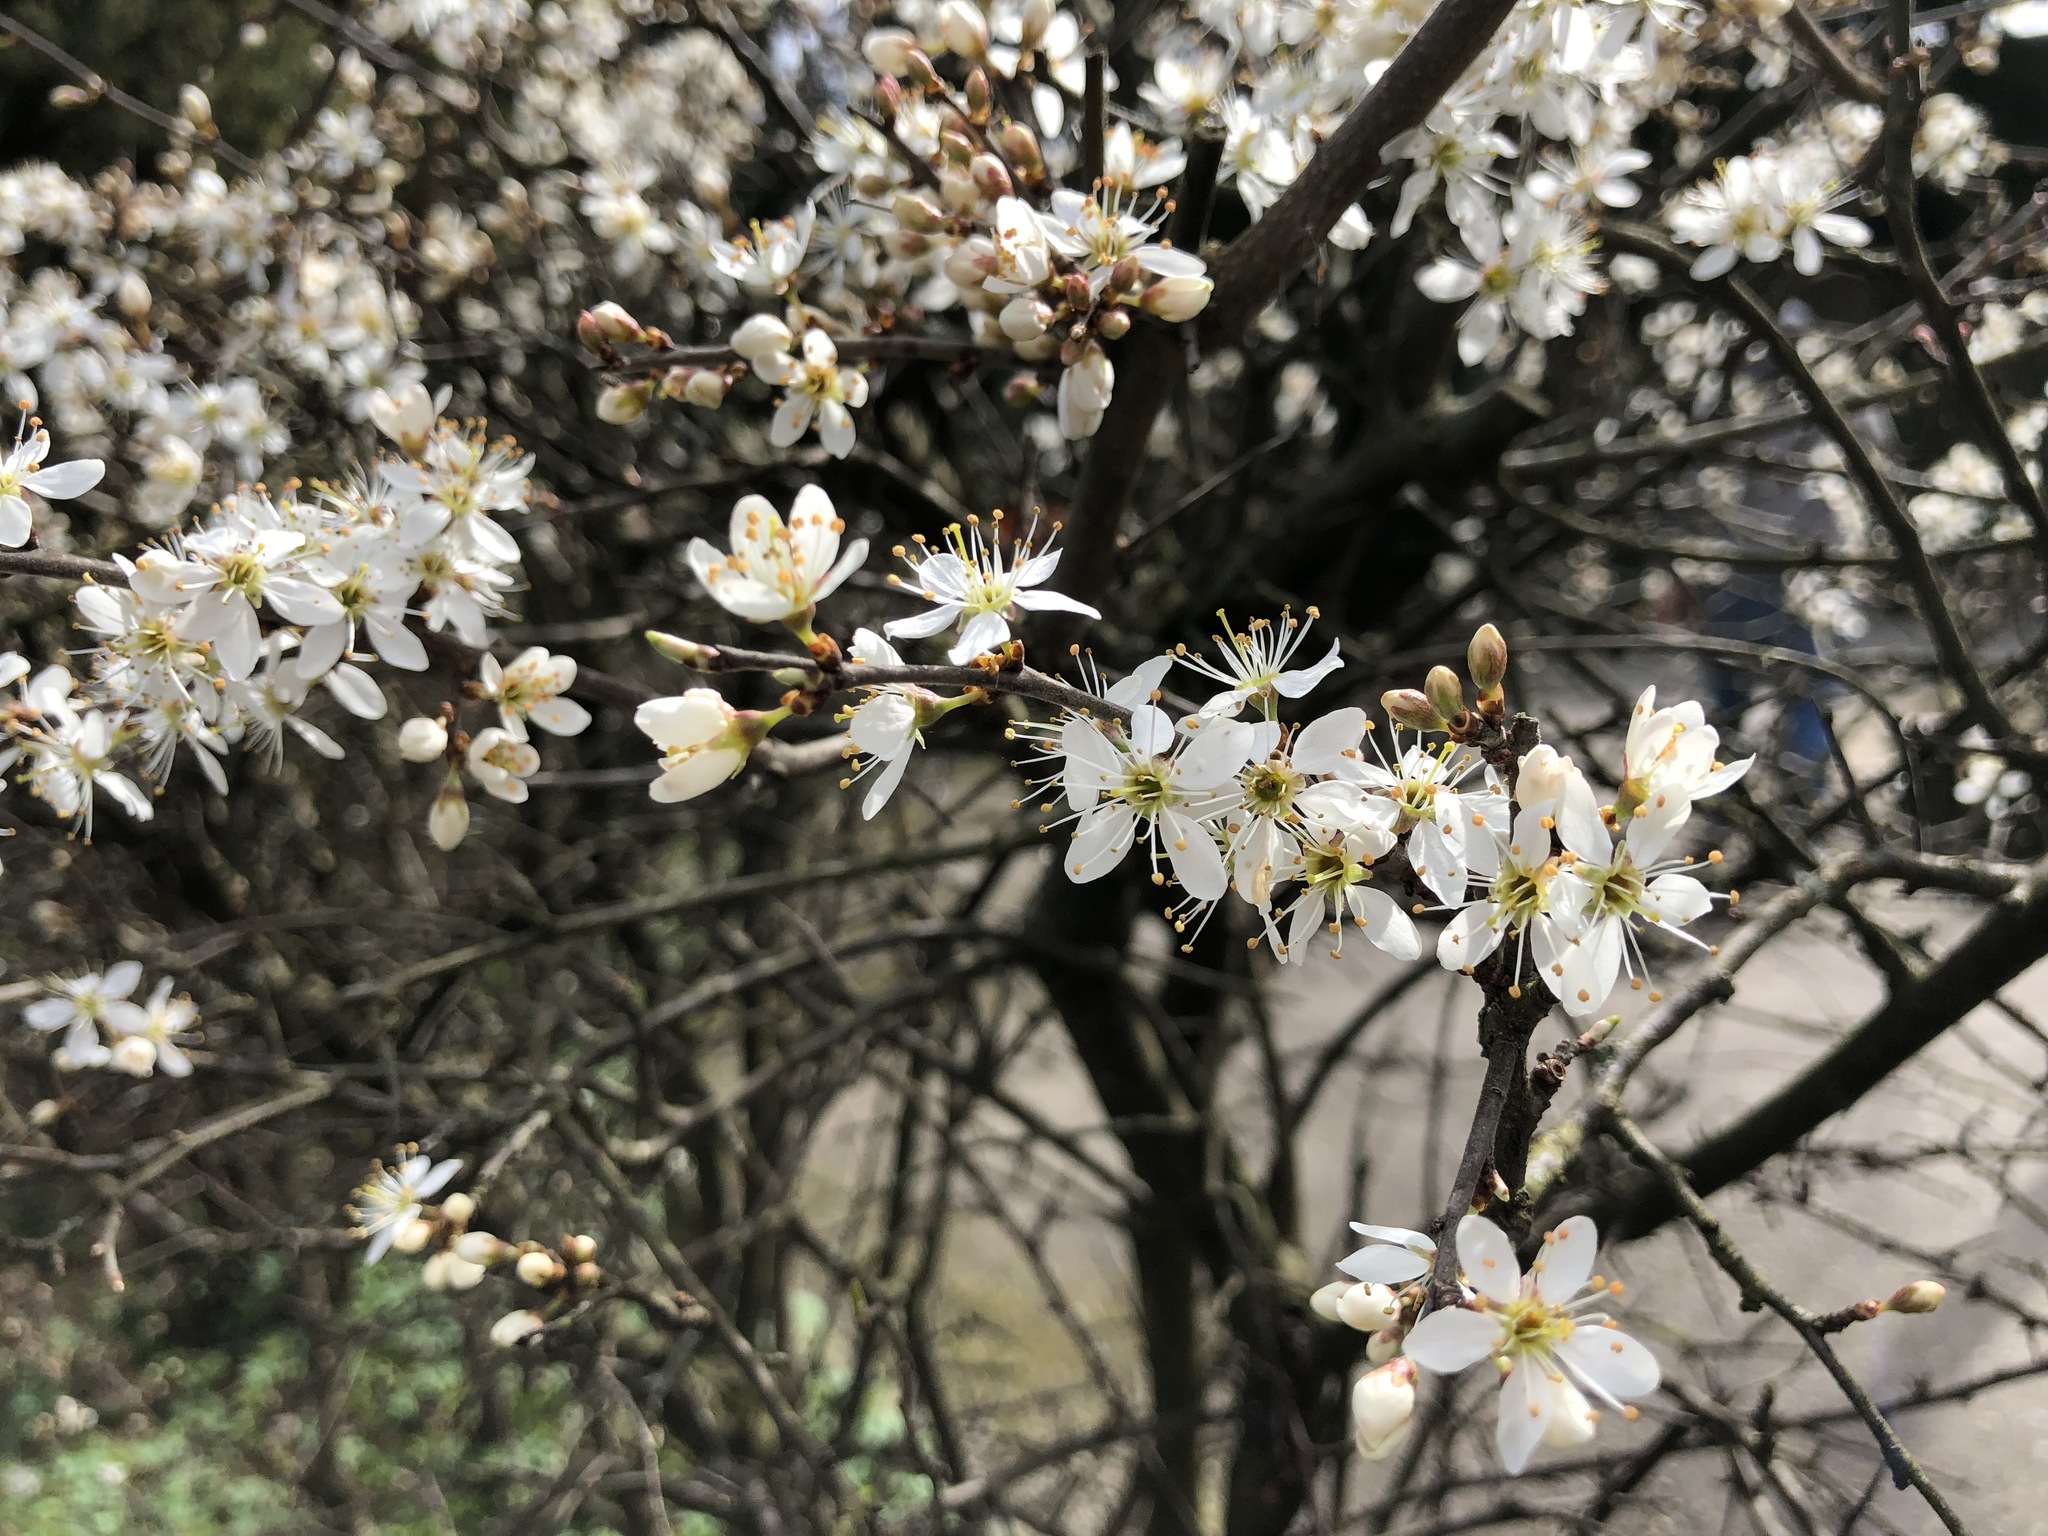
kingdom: Plantae
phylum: Tracheophyta
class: Magnoliopsida
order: Rosales
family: Rosaceae
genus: Prunus
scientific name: Prunus spinosa
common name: Blackthorn
